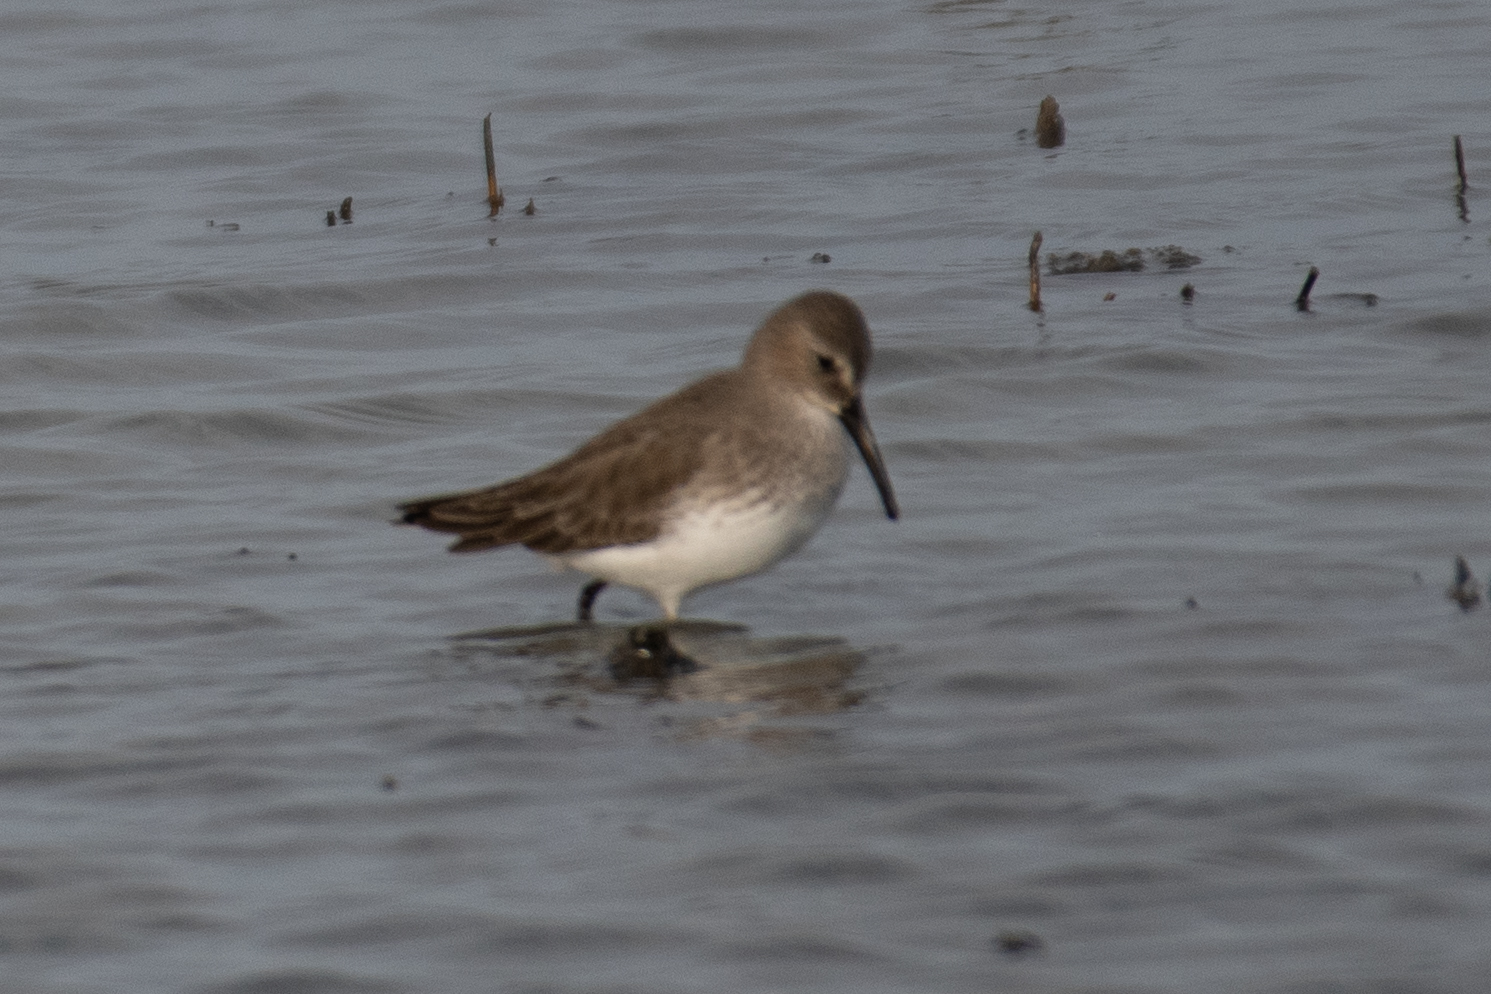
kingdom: Animalia
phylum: Chordata
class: Aves
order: Charadriiformes
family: Scolopacidae
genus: Calidris
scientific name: Calidris alpina
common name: Dunlin
